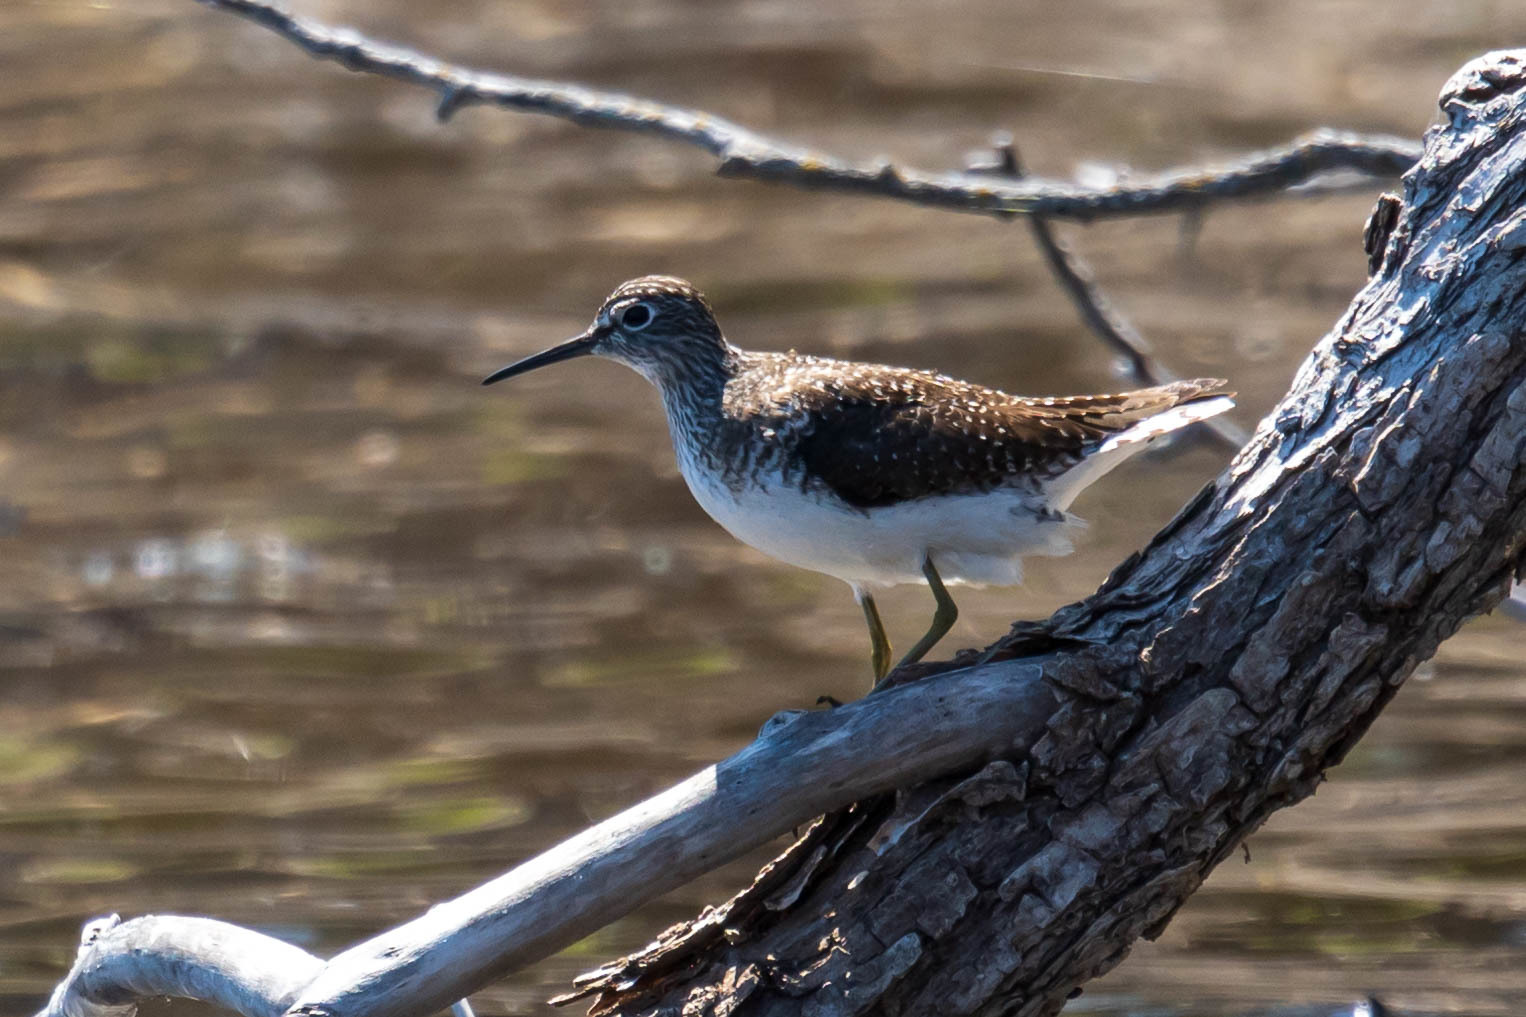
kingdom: Animalia
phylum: Chordata
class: Aves
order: Charadriiformes
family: Scolopacidae
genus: Tringa
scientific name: Tringa solitaria
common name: Solitary sandpiper
